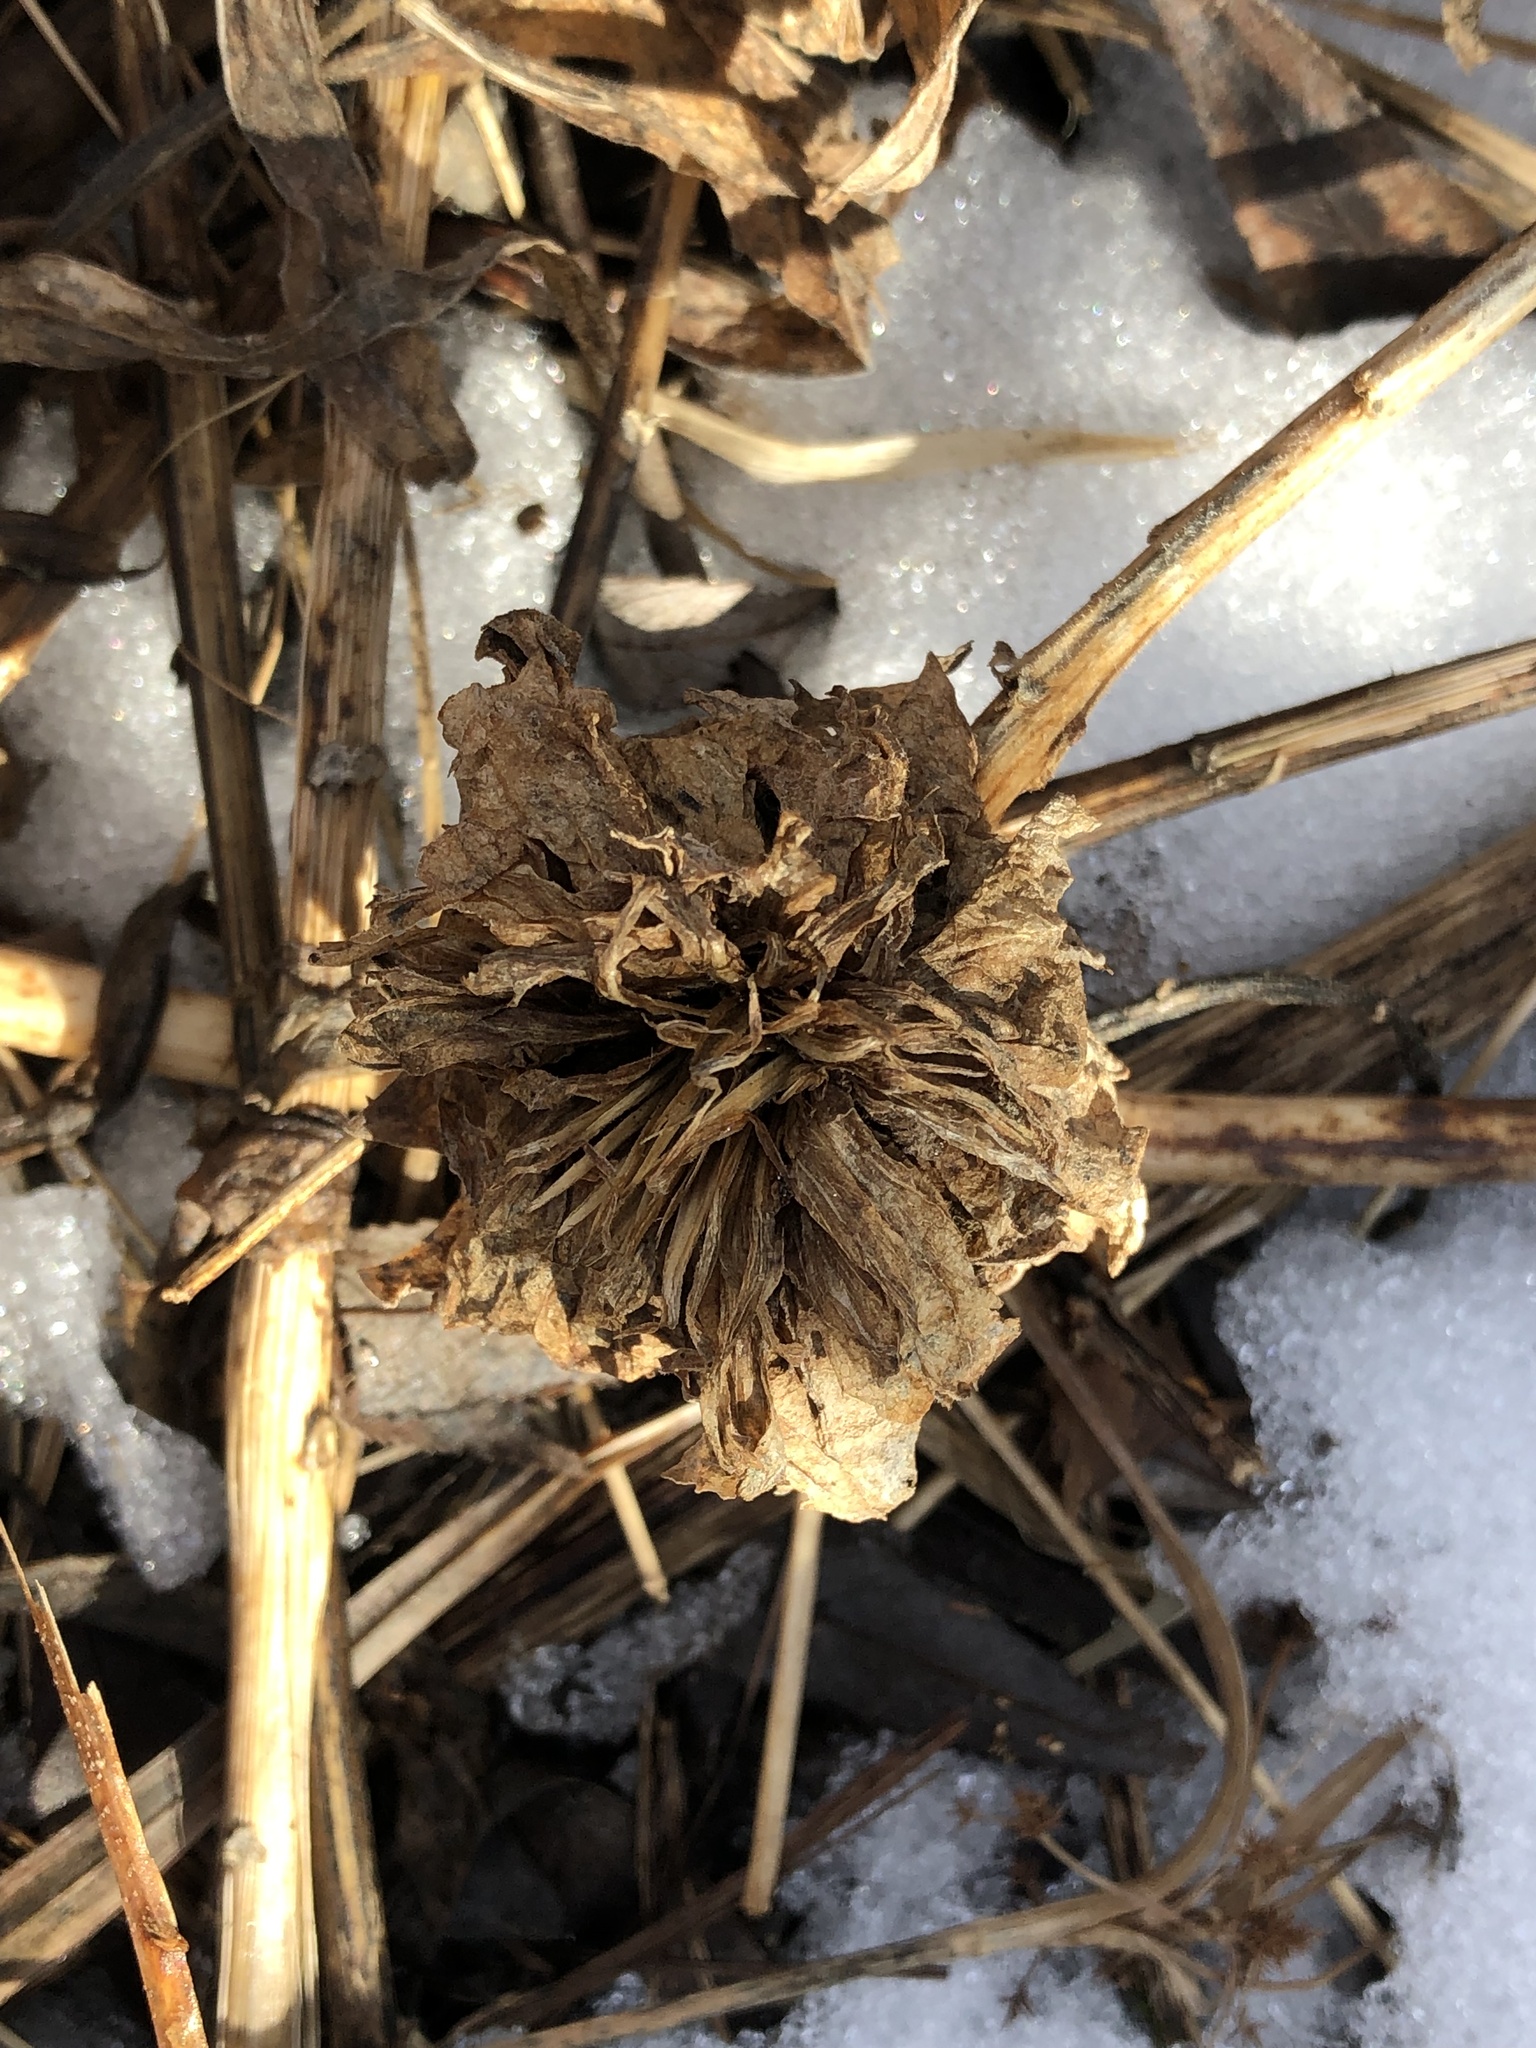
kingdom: Animalia
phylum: Arthropoda
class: Insecta
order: Diptera
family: Cecidomyiidae
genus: Rhopalomyia
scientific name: Rhopalomyia solidaginis
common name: Goldenrod bunch gall midge
